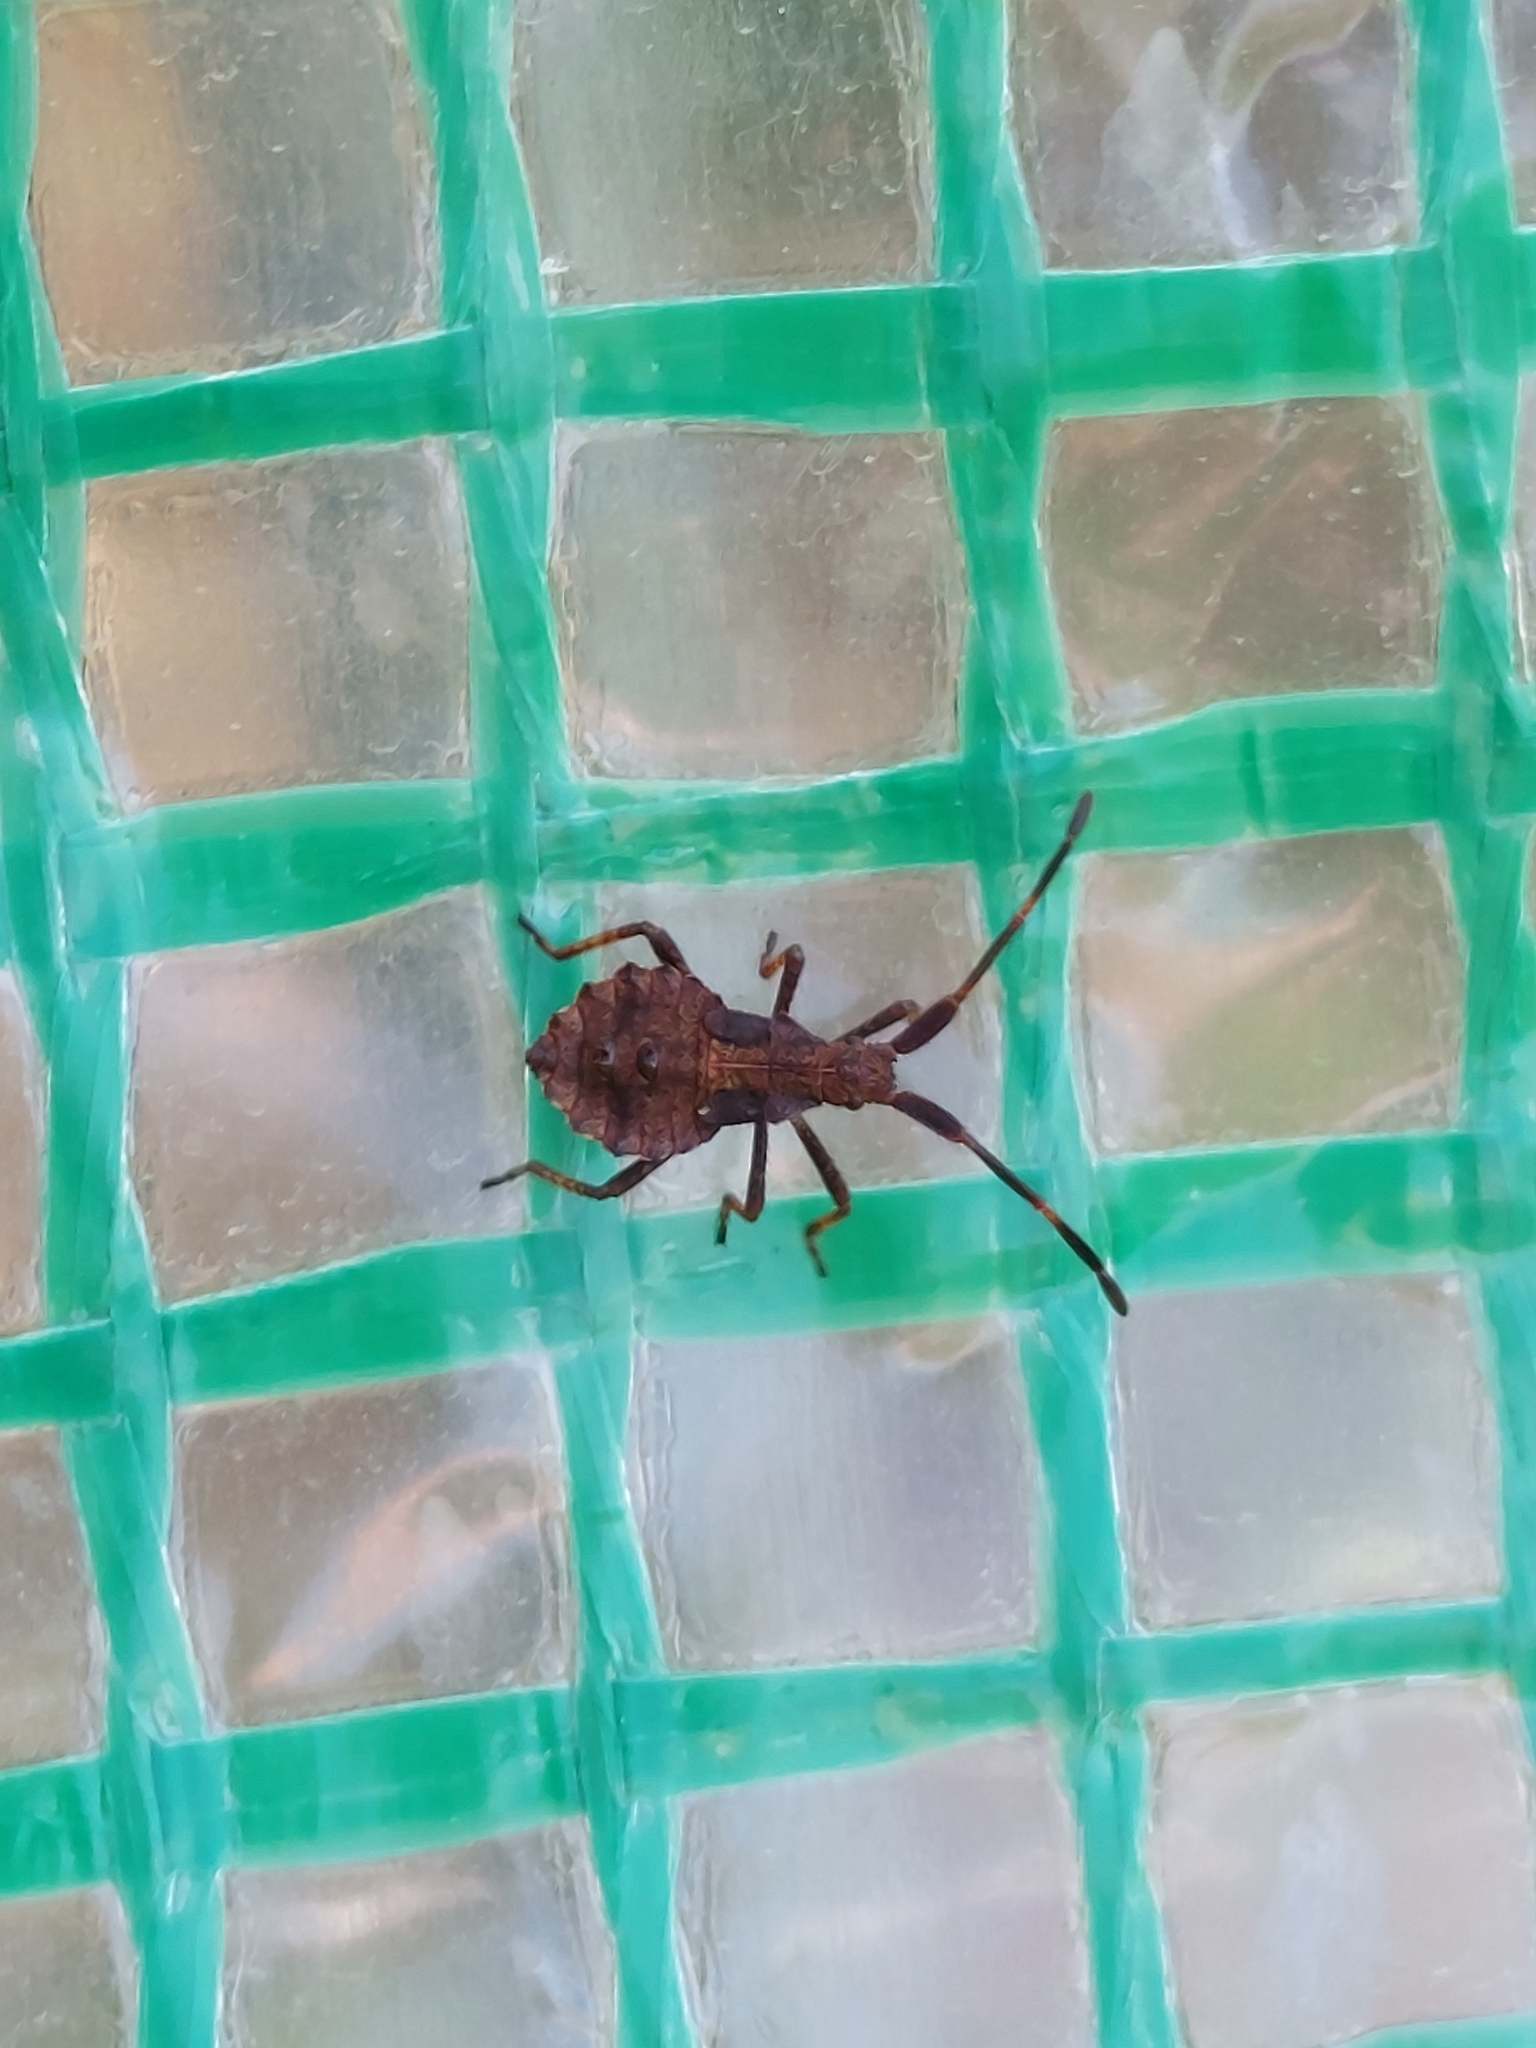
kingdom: Animalia
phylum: Arthropoda
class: Insecta
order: Hemiptera
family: Coreidae
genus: Coreus
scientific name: Coreus marginatus
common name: Dock bug
